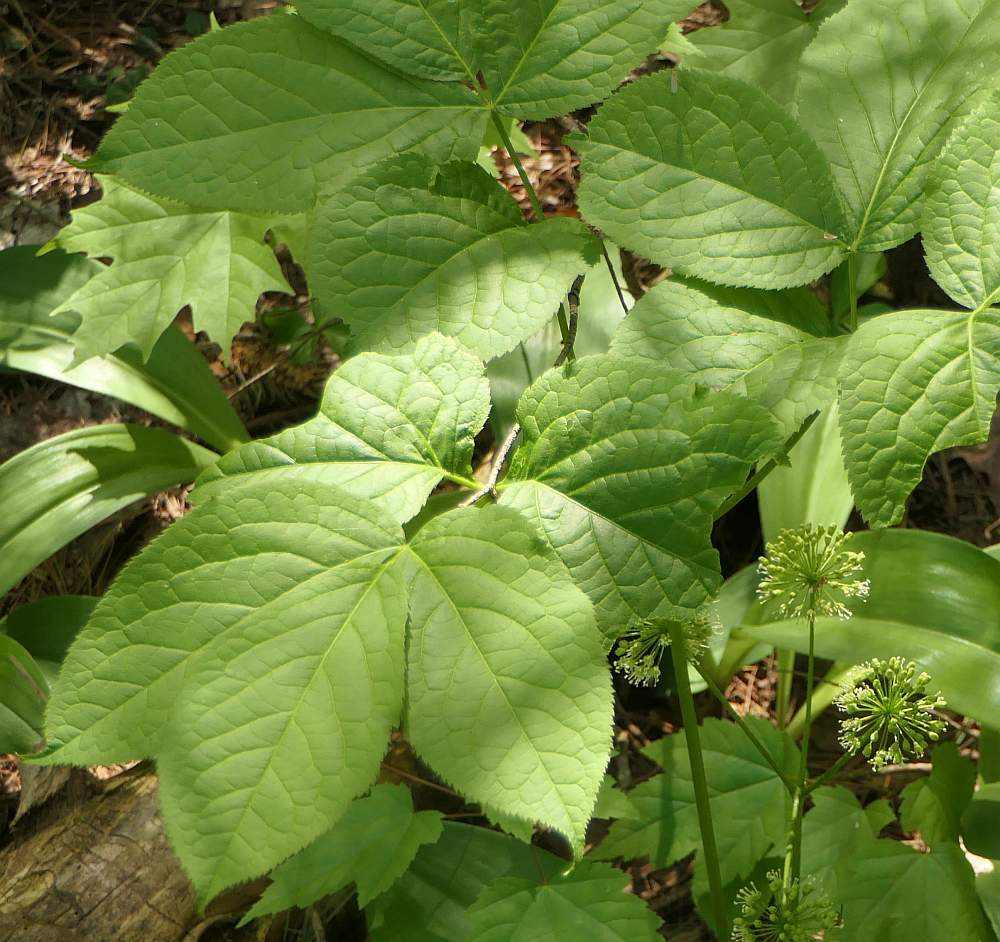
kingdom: Plantae
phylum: Tracheophyta
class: Magnoliopsida
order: Apiales
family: Araliaceae
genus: Aralia
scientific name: Aralia nudicaulis
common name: Wild sarsaparilla
